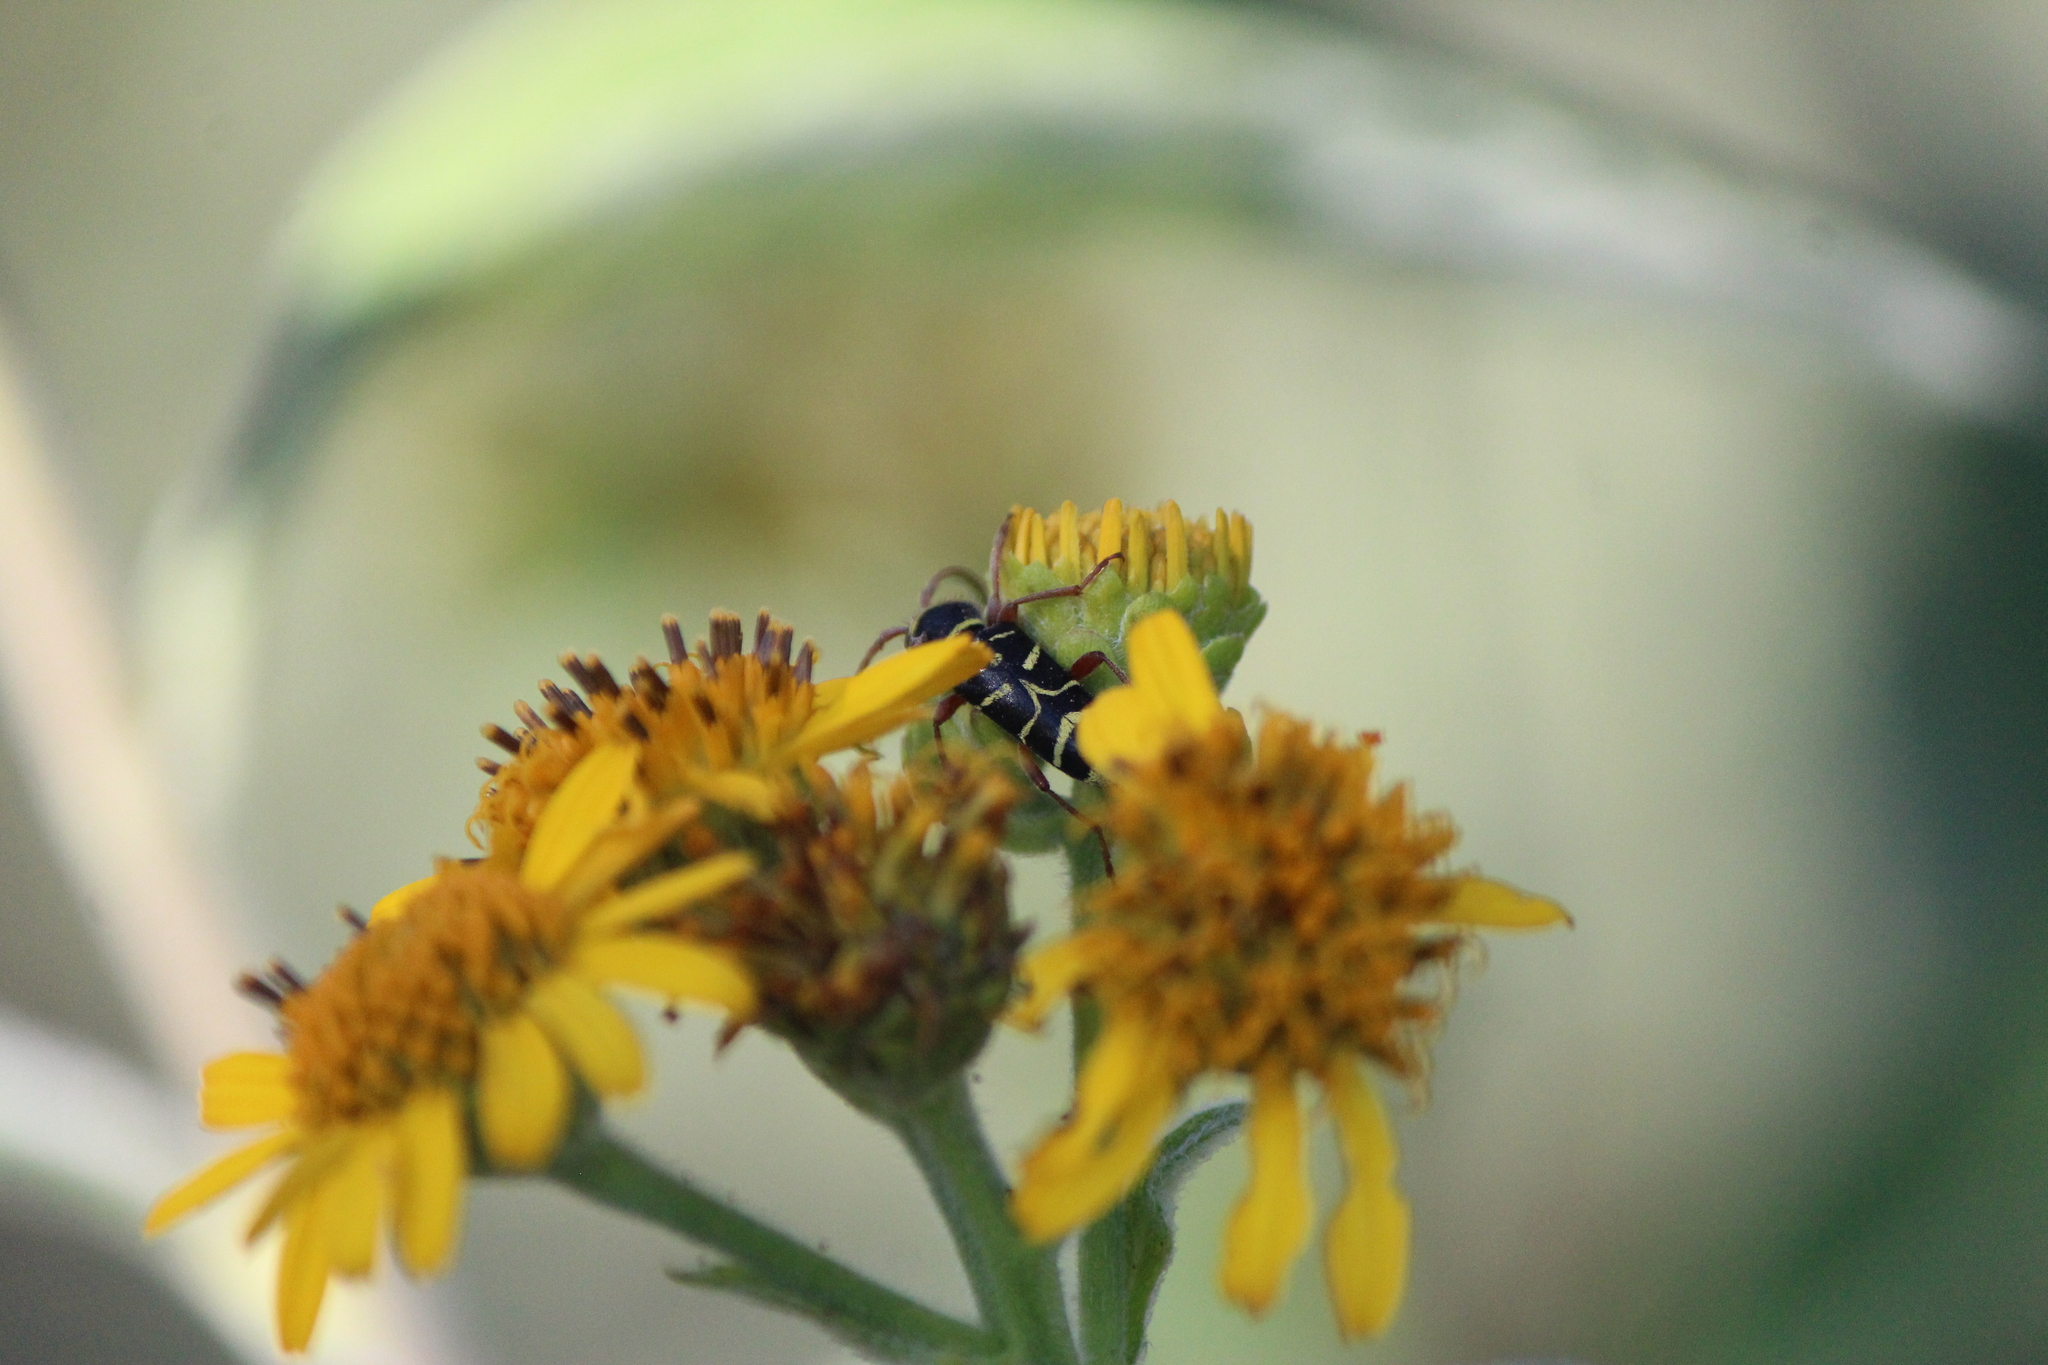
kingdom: Animalia
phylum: Arthropoda
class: Insecta
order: Coleoptera
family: Cerambycidae
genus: Ochraethes
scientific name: Ochraethes dimidiaticornis
